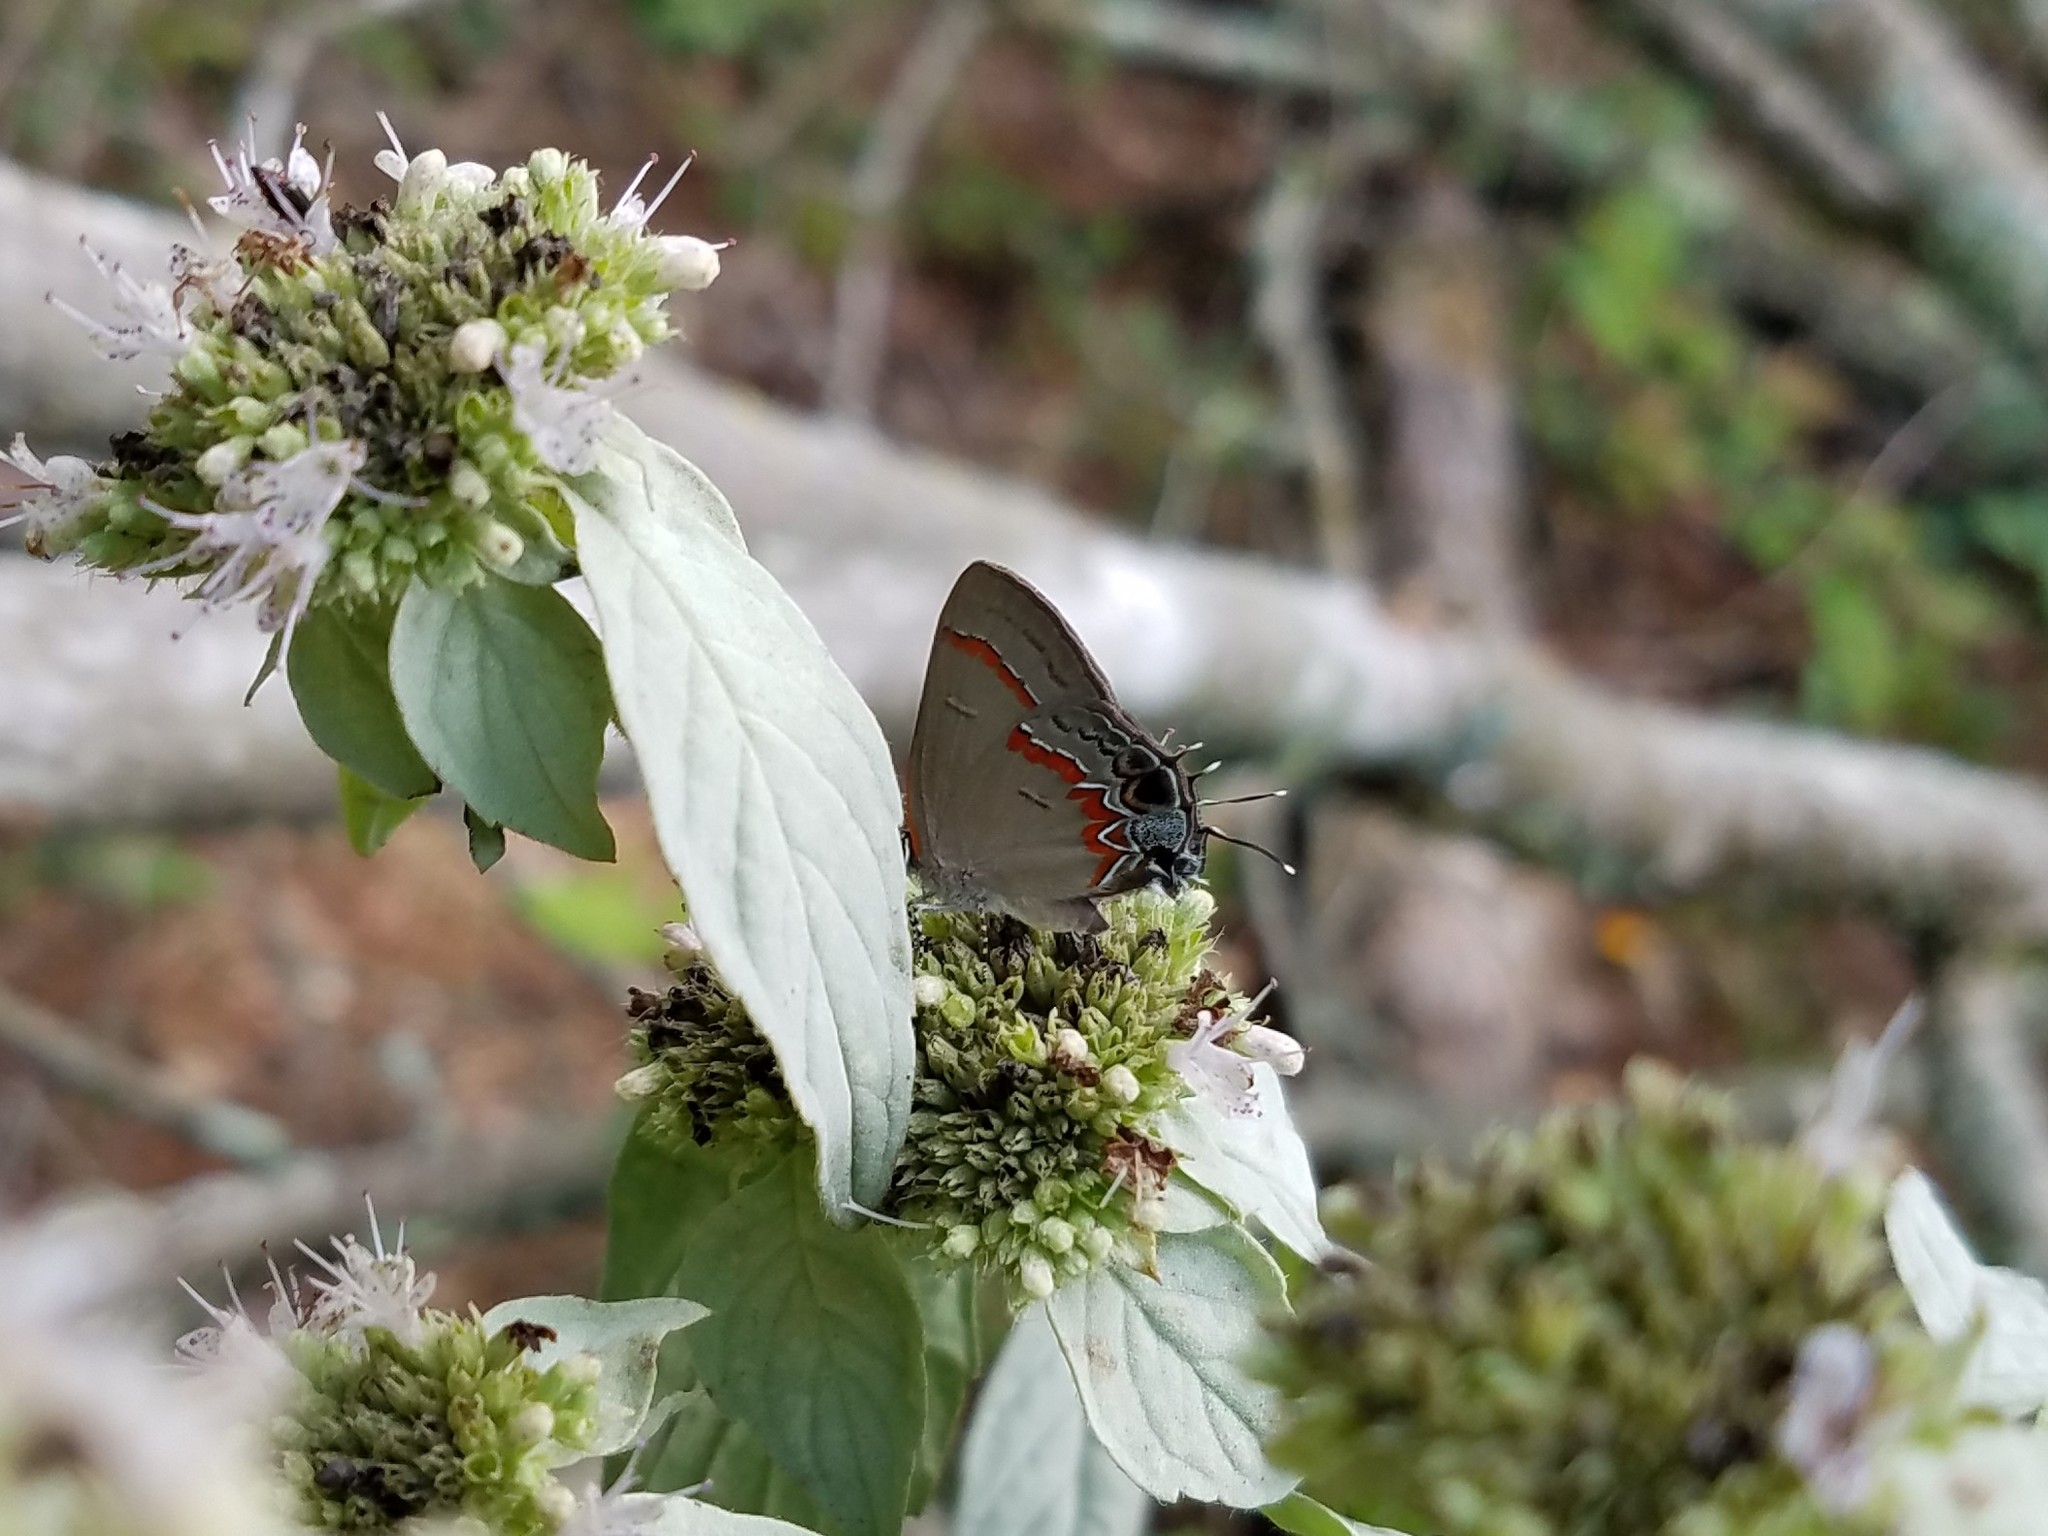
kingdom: Animalia
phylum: Arthropoda
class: Insecta
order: Lepidoptera
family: Lycaenidae
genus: Calycopis
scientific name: Calycopis cecrops
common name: Red-banded hairstreak
